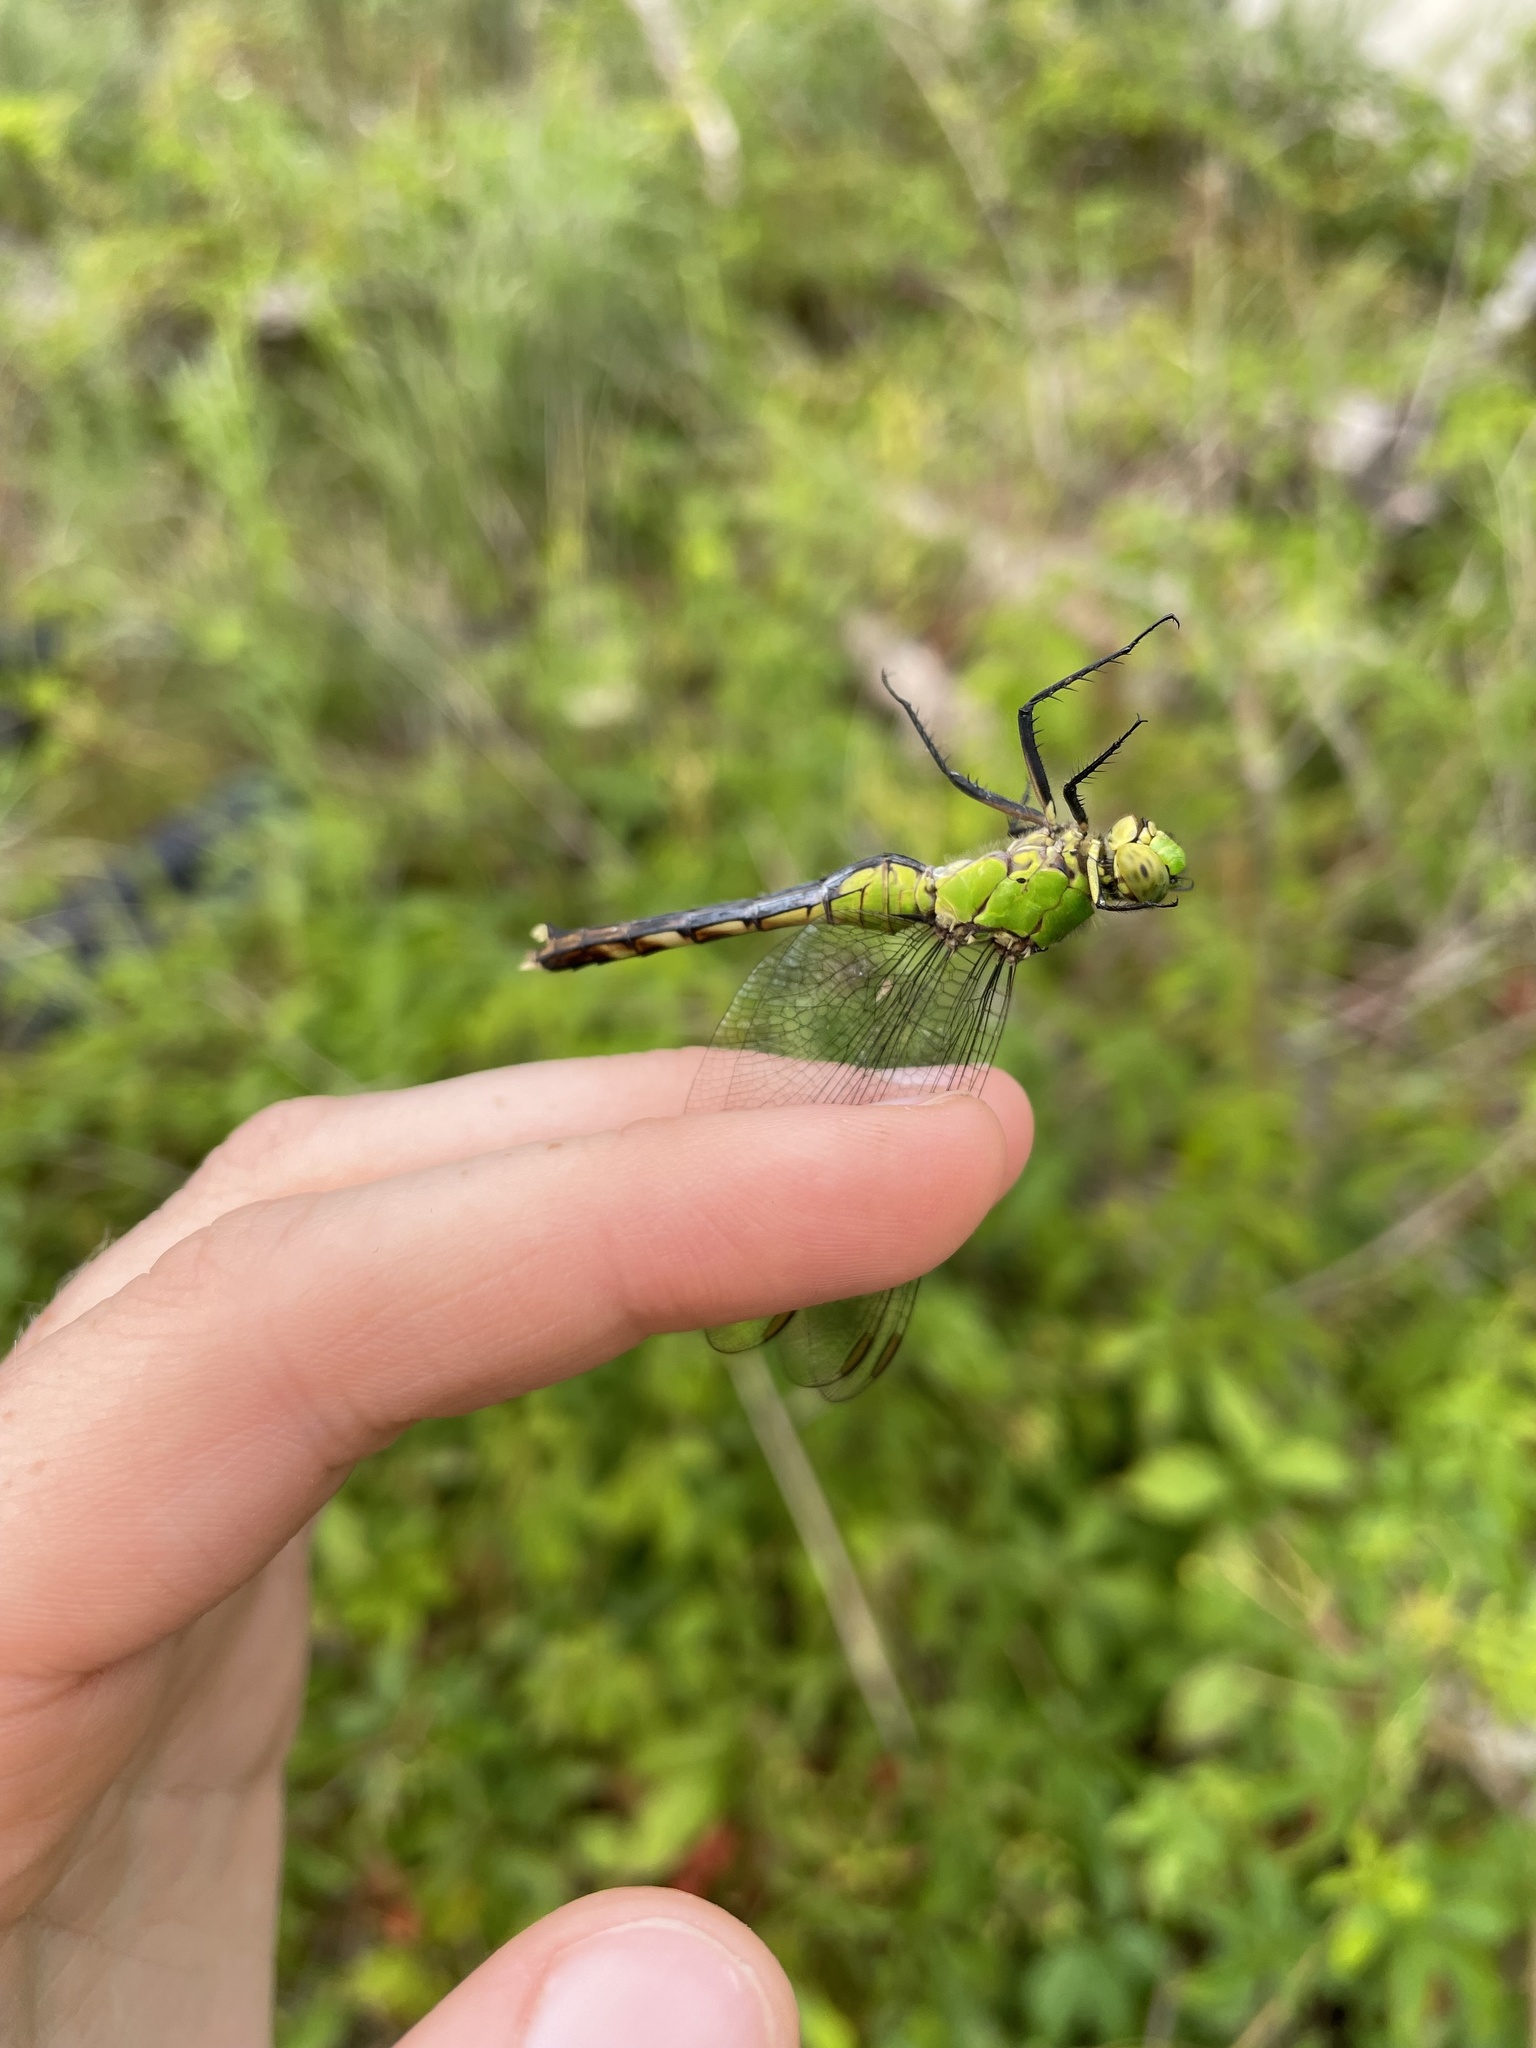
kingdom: Animalia
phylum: Arthropoda
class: Insecta
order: Odonata
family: Libellulidae
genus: Erythemis
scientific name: Erythemis simplicicollis
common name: Eastern pondhawk
